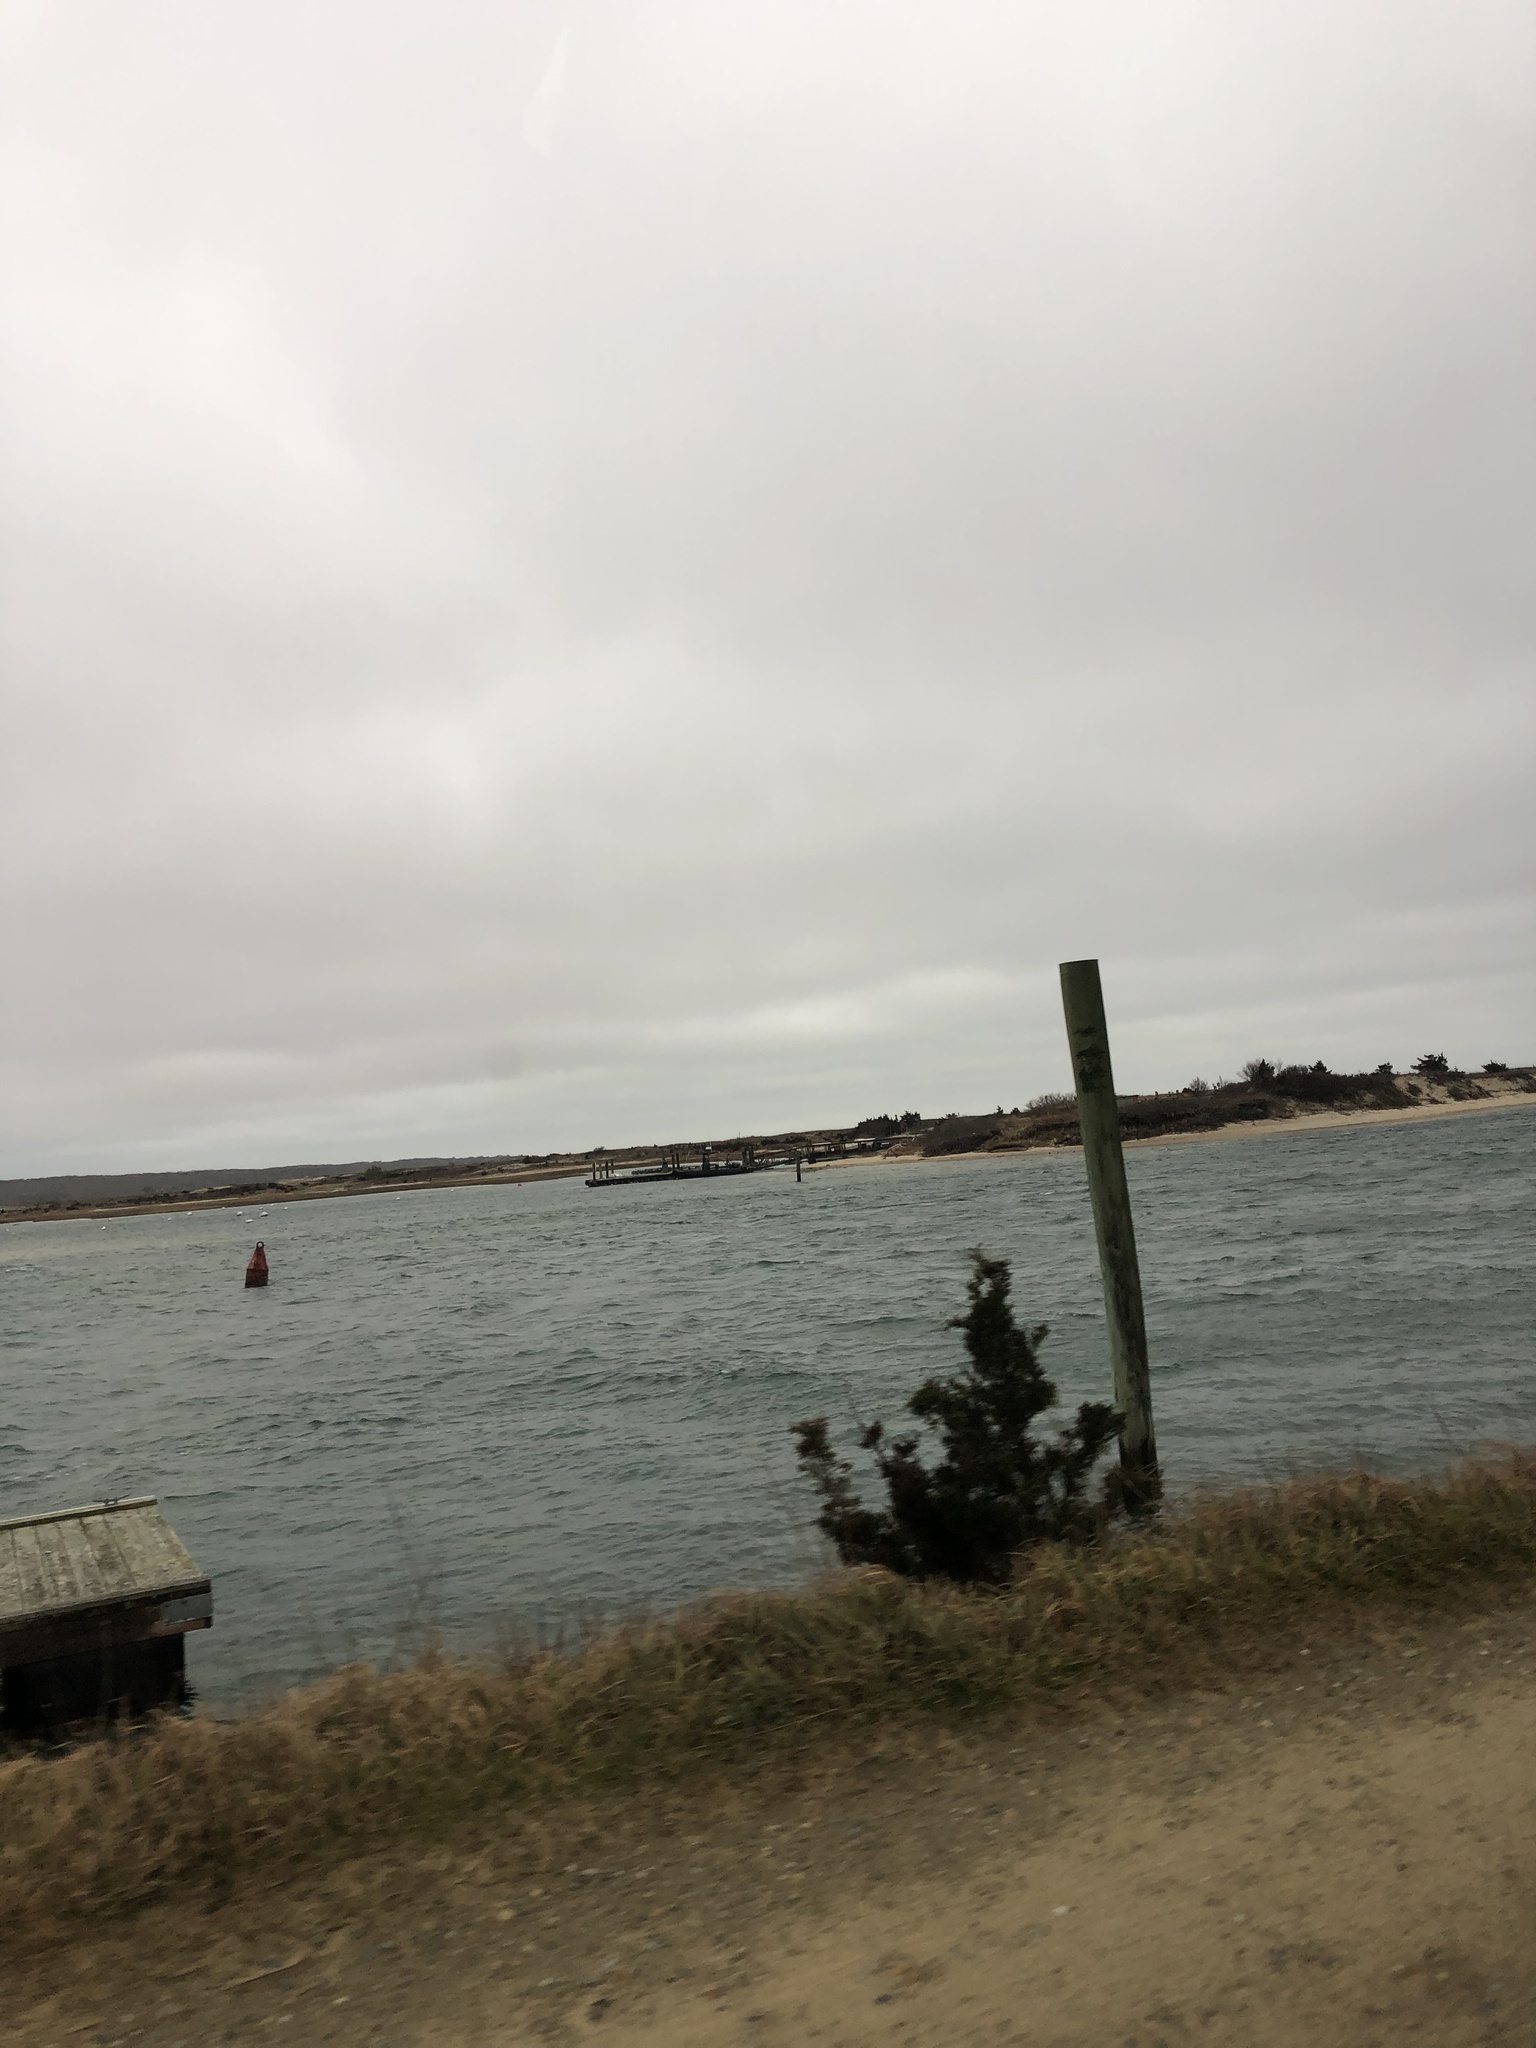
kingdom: Plantae
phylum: Tracheophyta
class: Pinopsida
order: Pinales
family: Cupressaceae
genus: Juniperus
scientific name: Juniperus virginiana
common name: Red juniper
